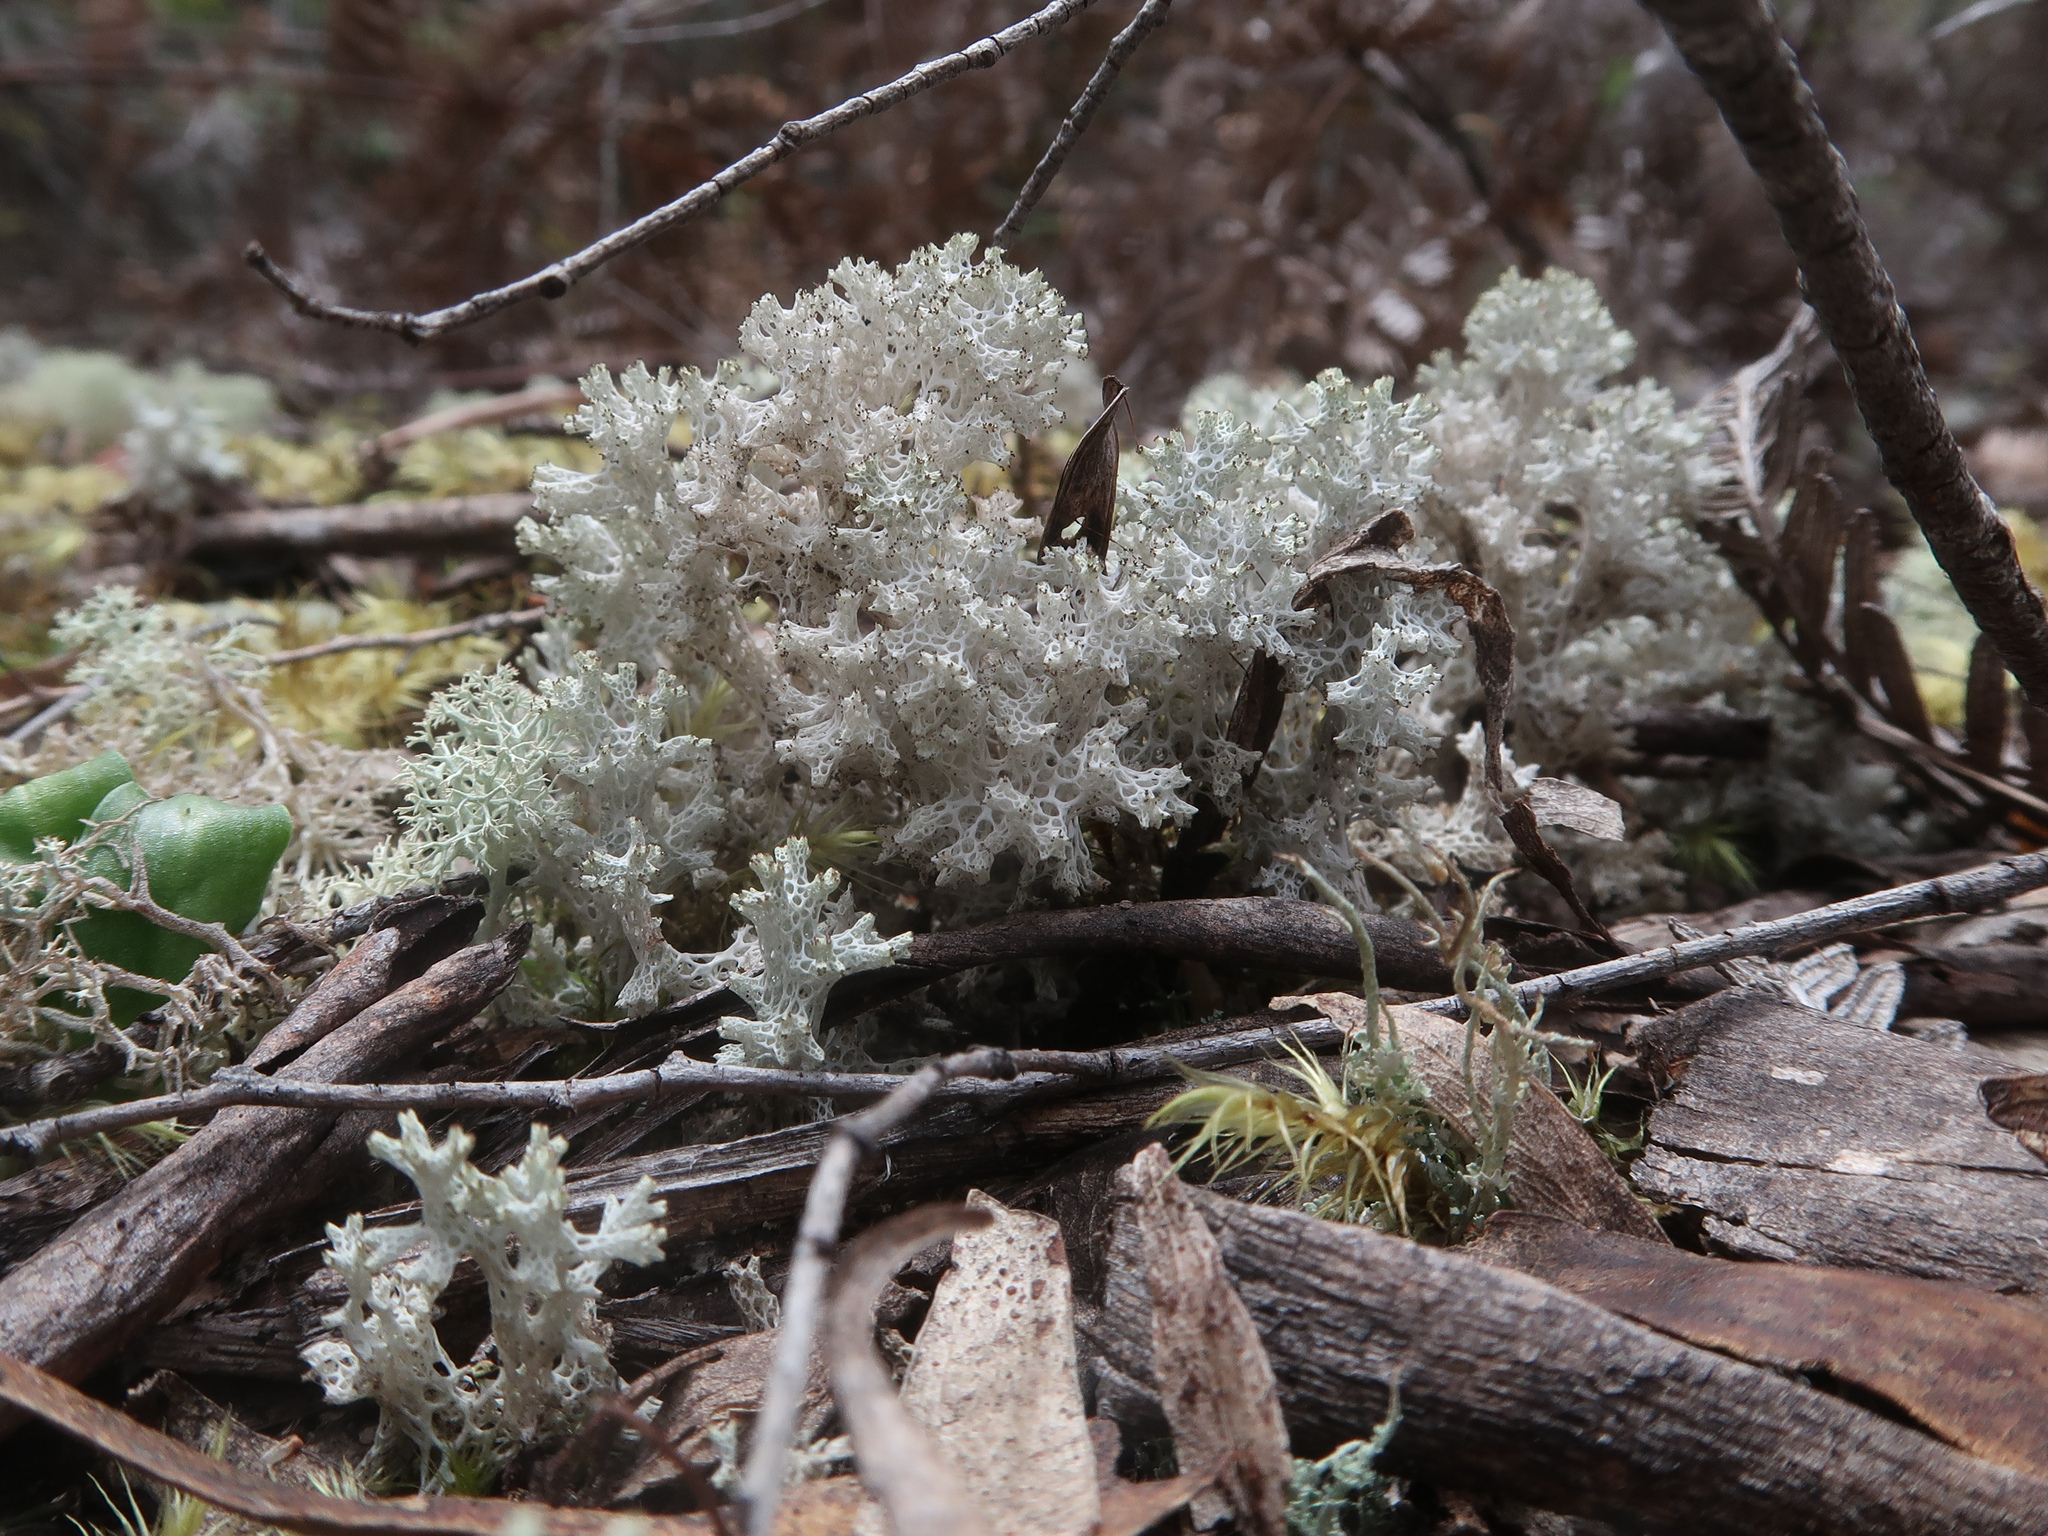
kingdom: Fungi
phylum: Ascomycota
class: Lecanoromycetes
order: Lecanorales
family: Cladoniaceae
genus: Pulchrocladia
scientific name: Pulchrocladia retipora
